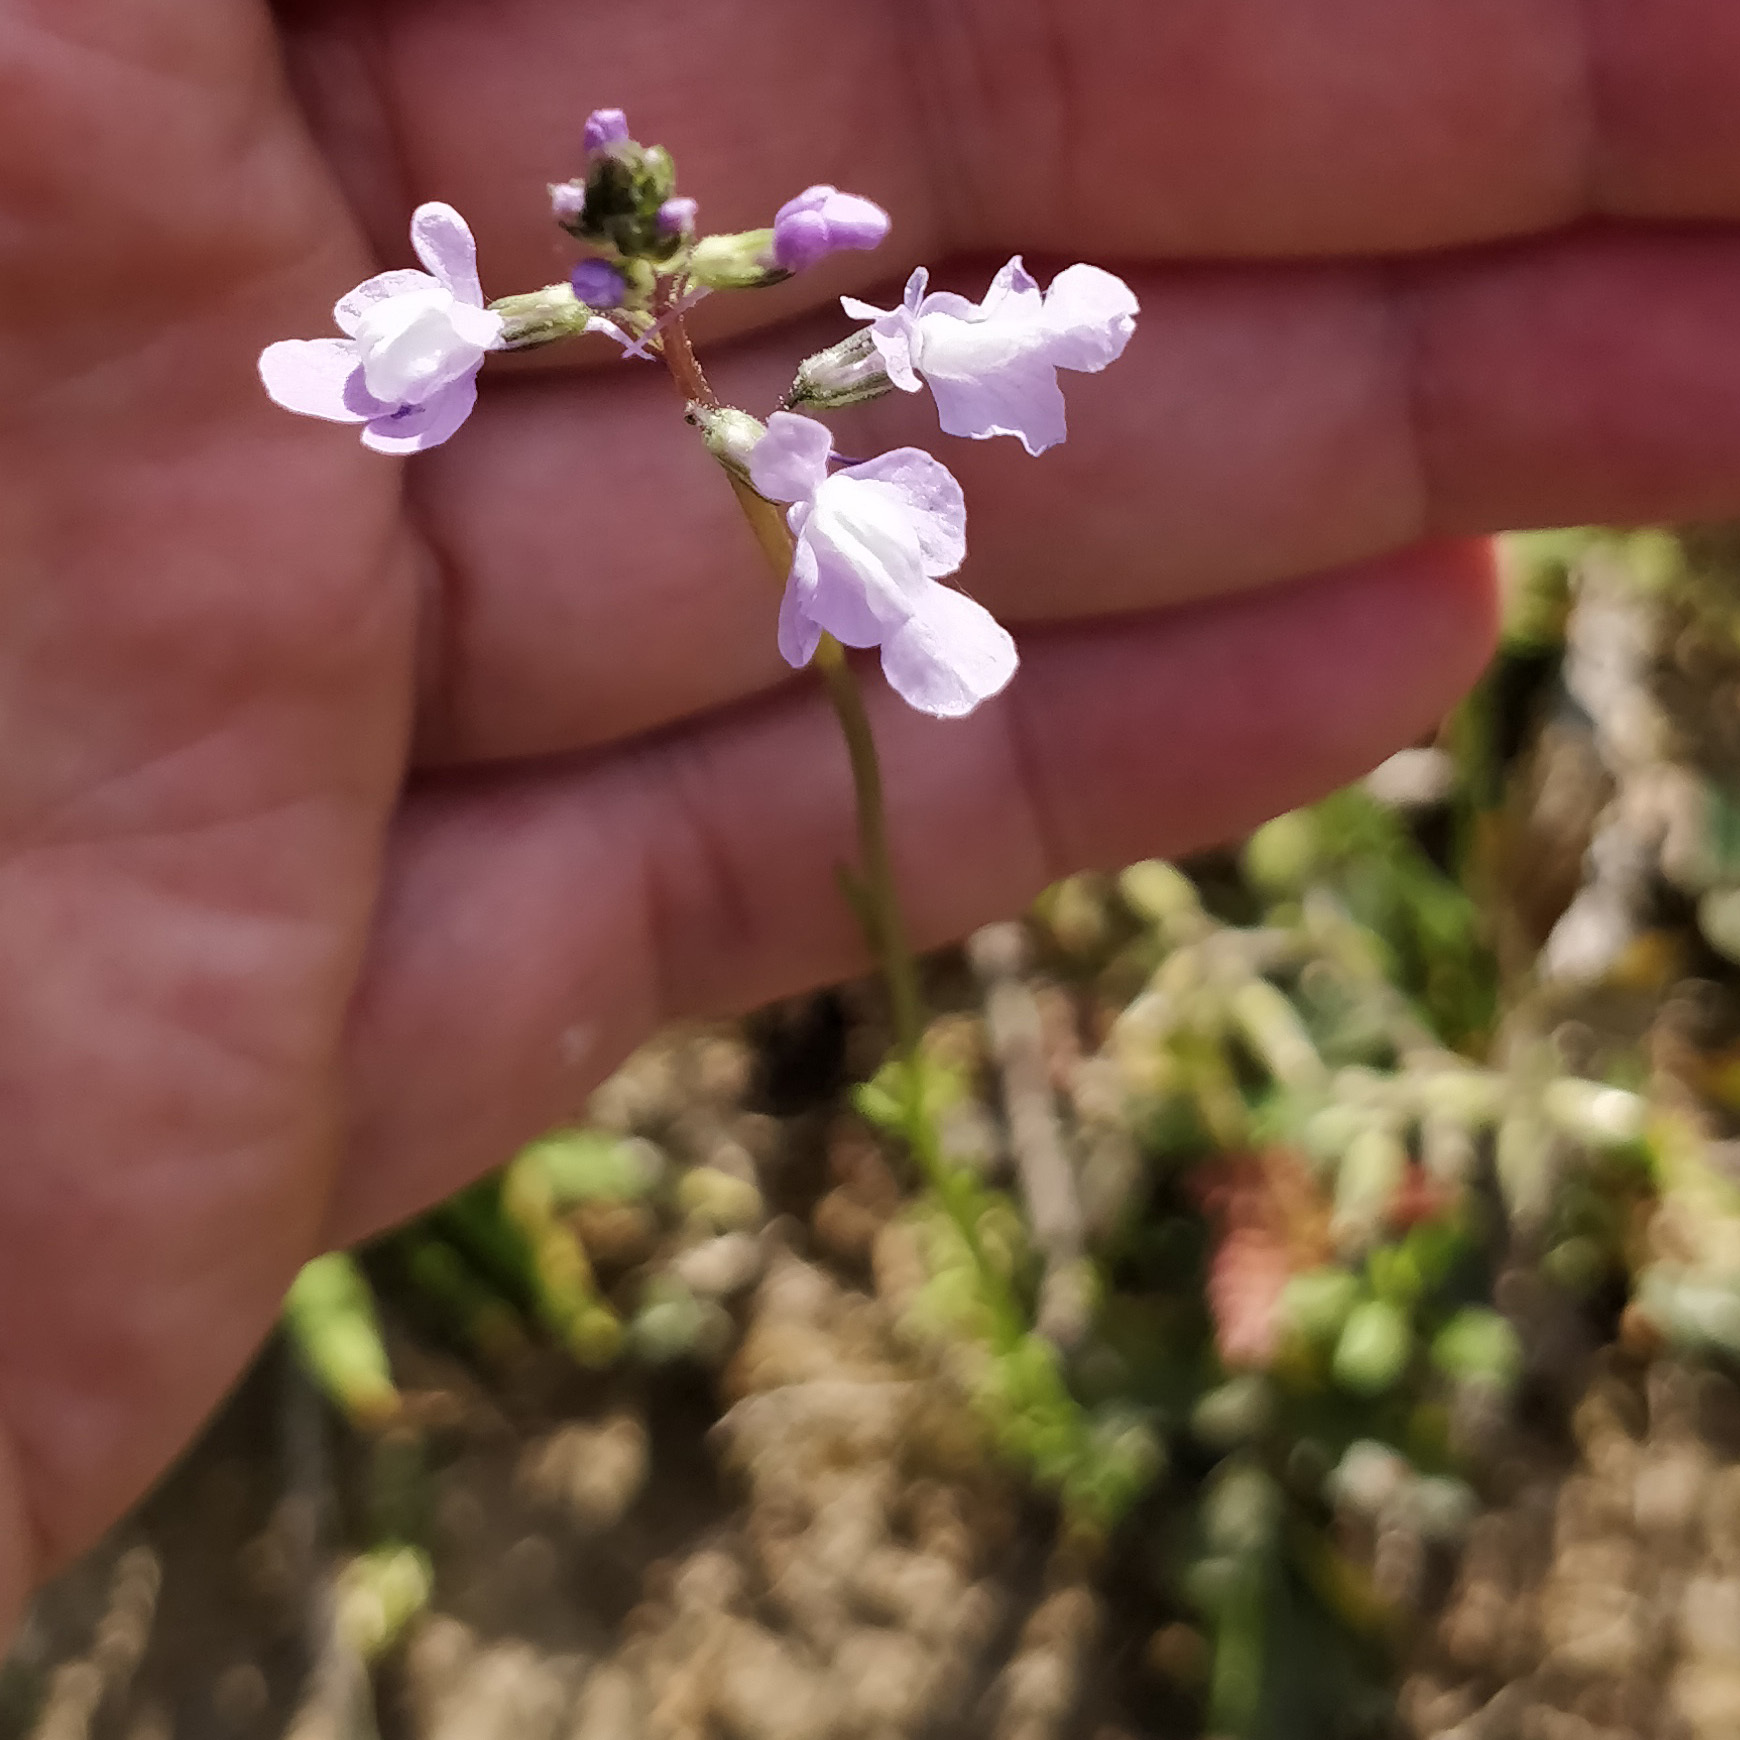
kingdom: Plantae
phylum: Tracheophyta
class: Magnoliopsida
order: Lamiales
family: Plantaginaceae
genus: Nuttallanthus
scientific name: Nuttallanthus canadensis
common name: Blue toadflax
